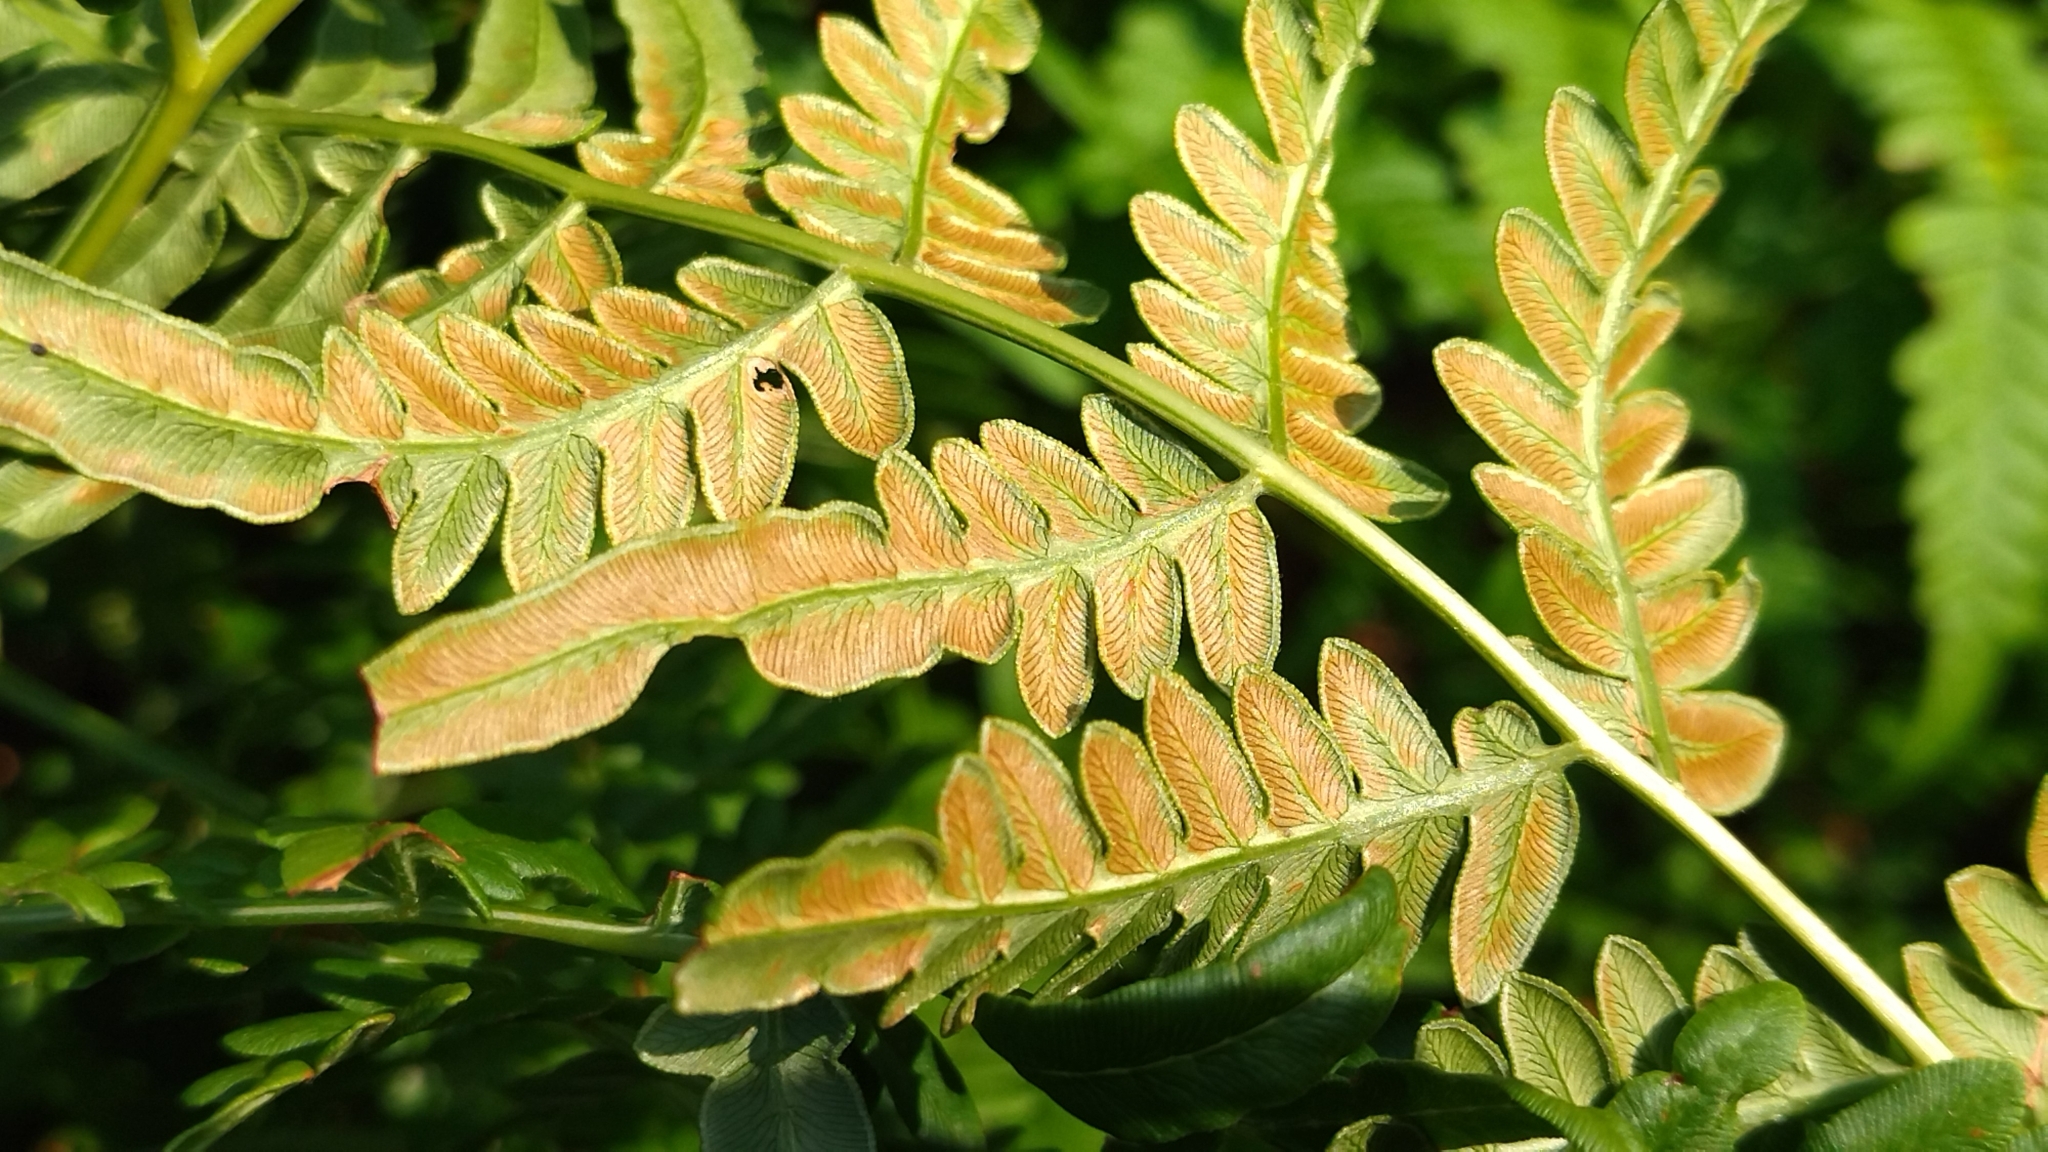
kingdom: Plantae
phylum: Tracheophyta
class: Polypodiopsida
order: Polypodiales
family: Dennstaedtiaceae
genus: Pteridium
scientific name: Pteridium aquilinum
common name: Bracken
